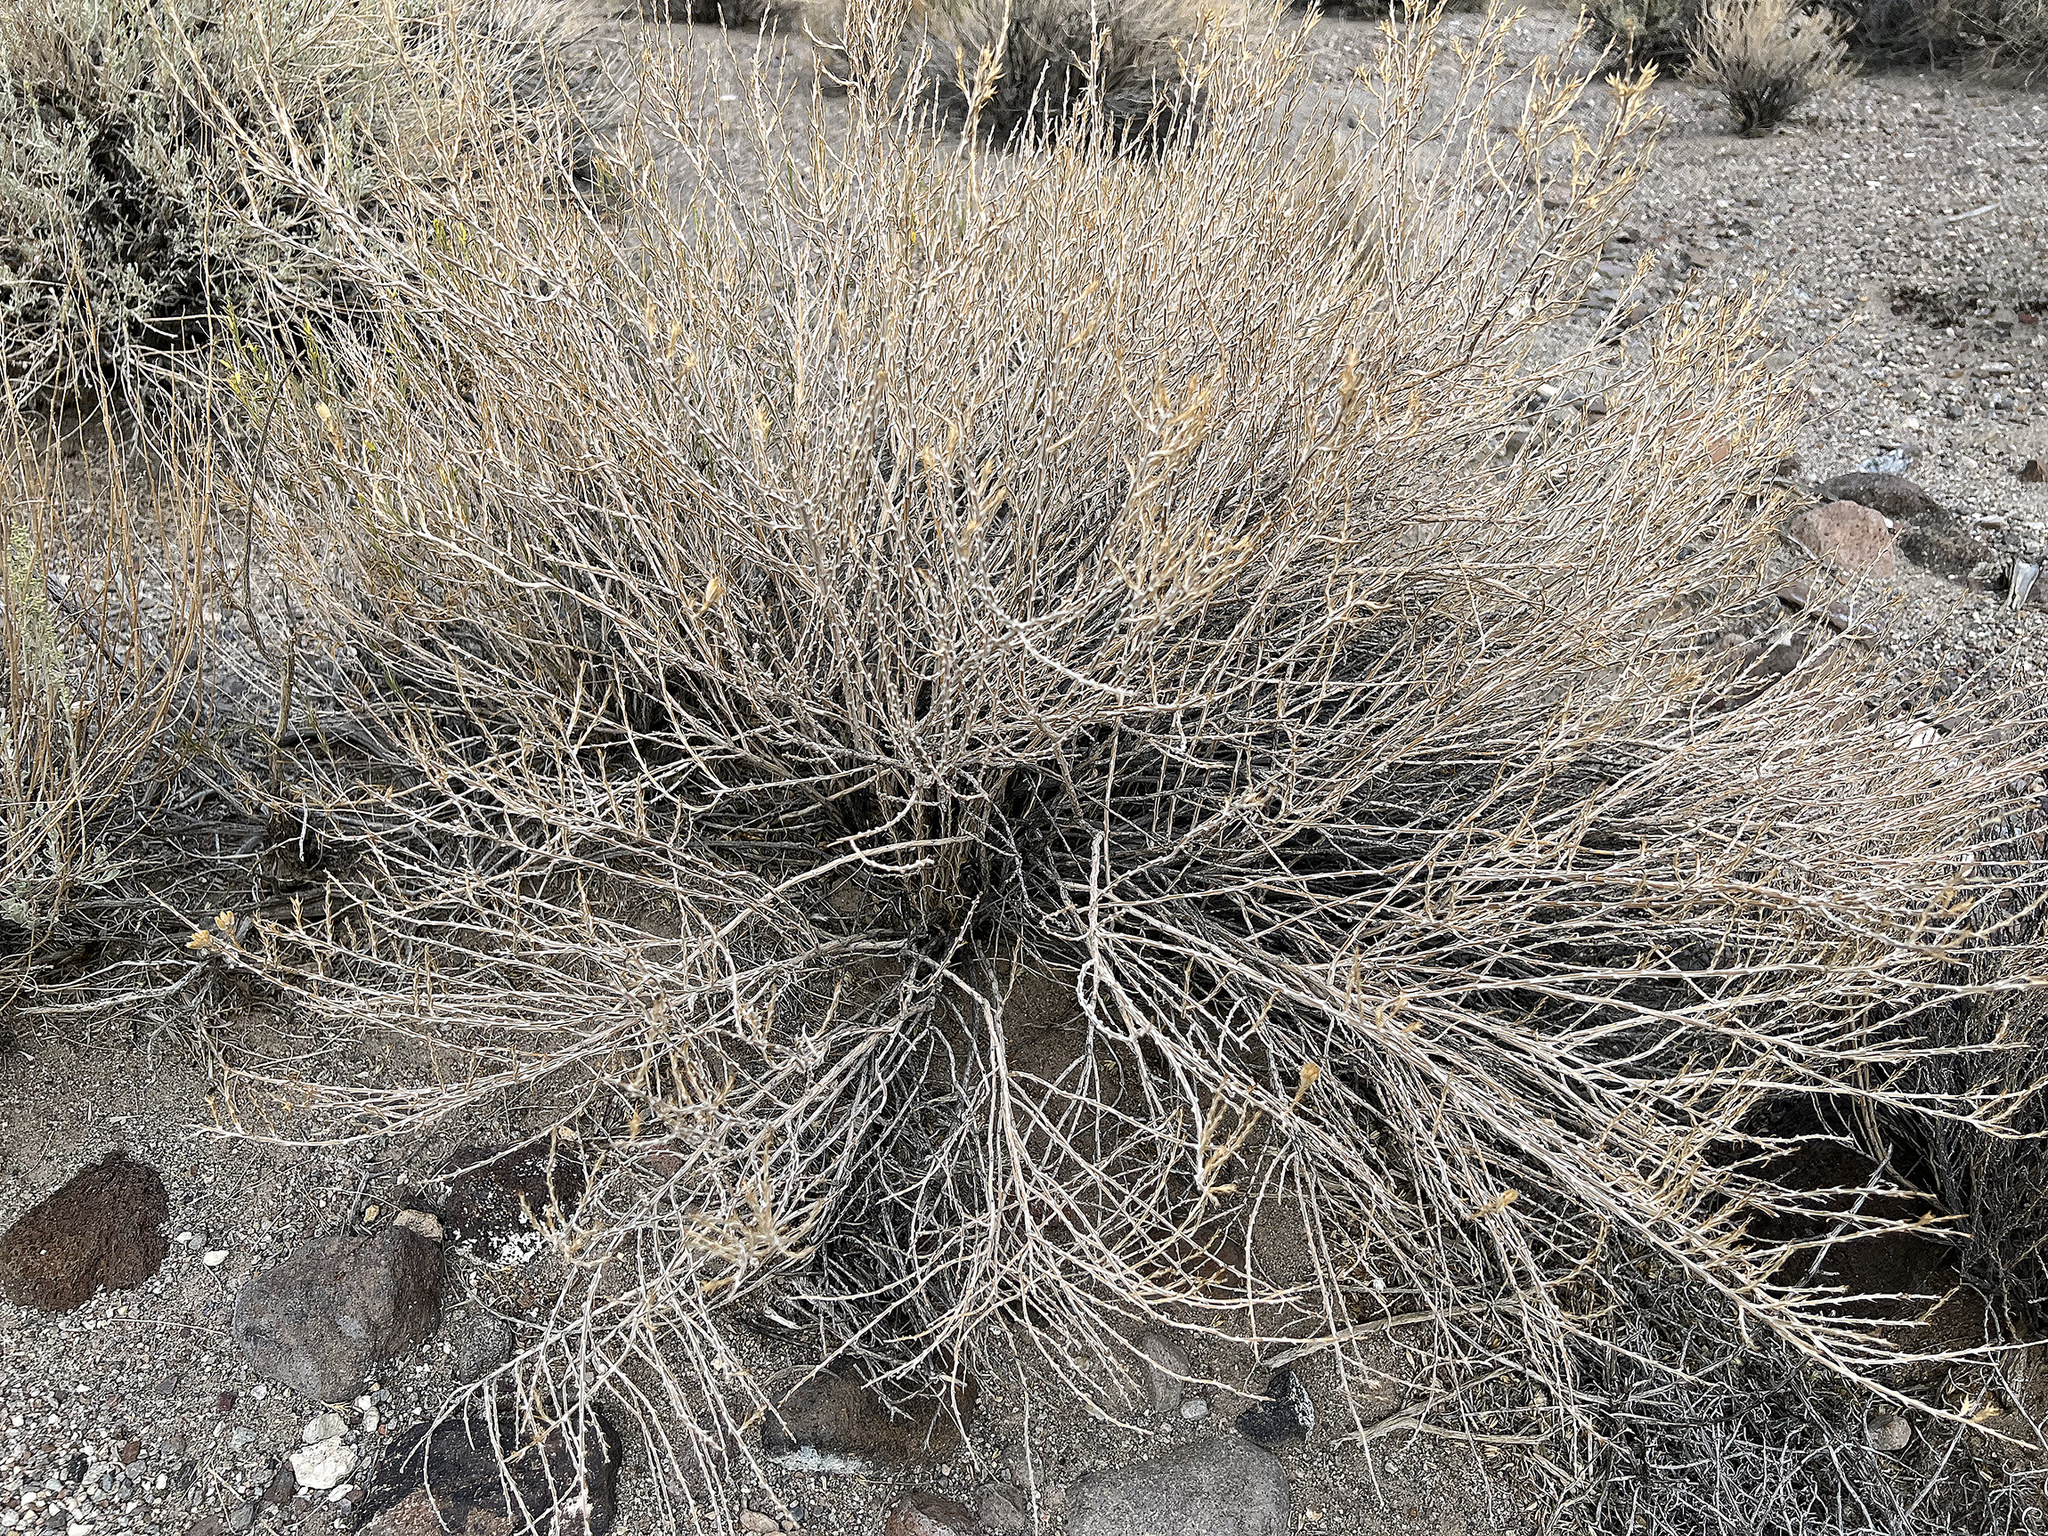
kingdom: Plantae
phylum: Tracheophyta
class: Magnoliopsida
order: Asterales
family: Asteraceae
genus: Tetradymia
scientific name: Tetradymia glabrata
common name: Smooth tetradymia
